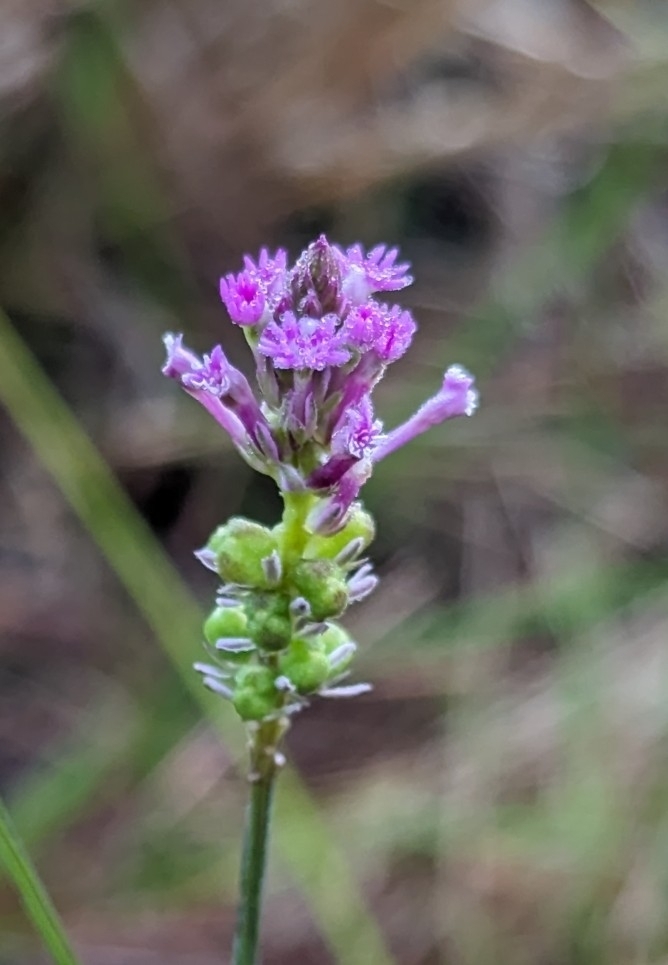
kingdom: Plantae
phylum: Tracheophyta
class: Magnoliopsida
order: Fabales
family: Polygalaceae
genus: Polygala
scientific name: Polygala incarnata
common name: Pink milkwort
